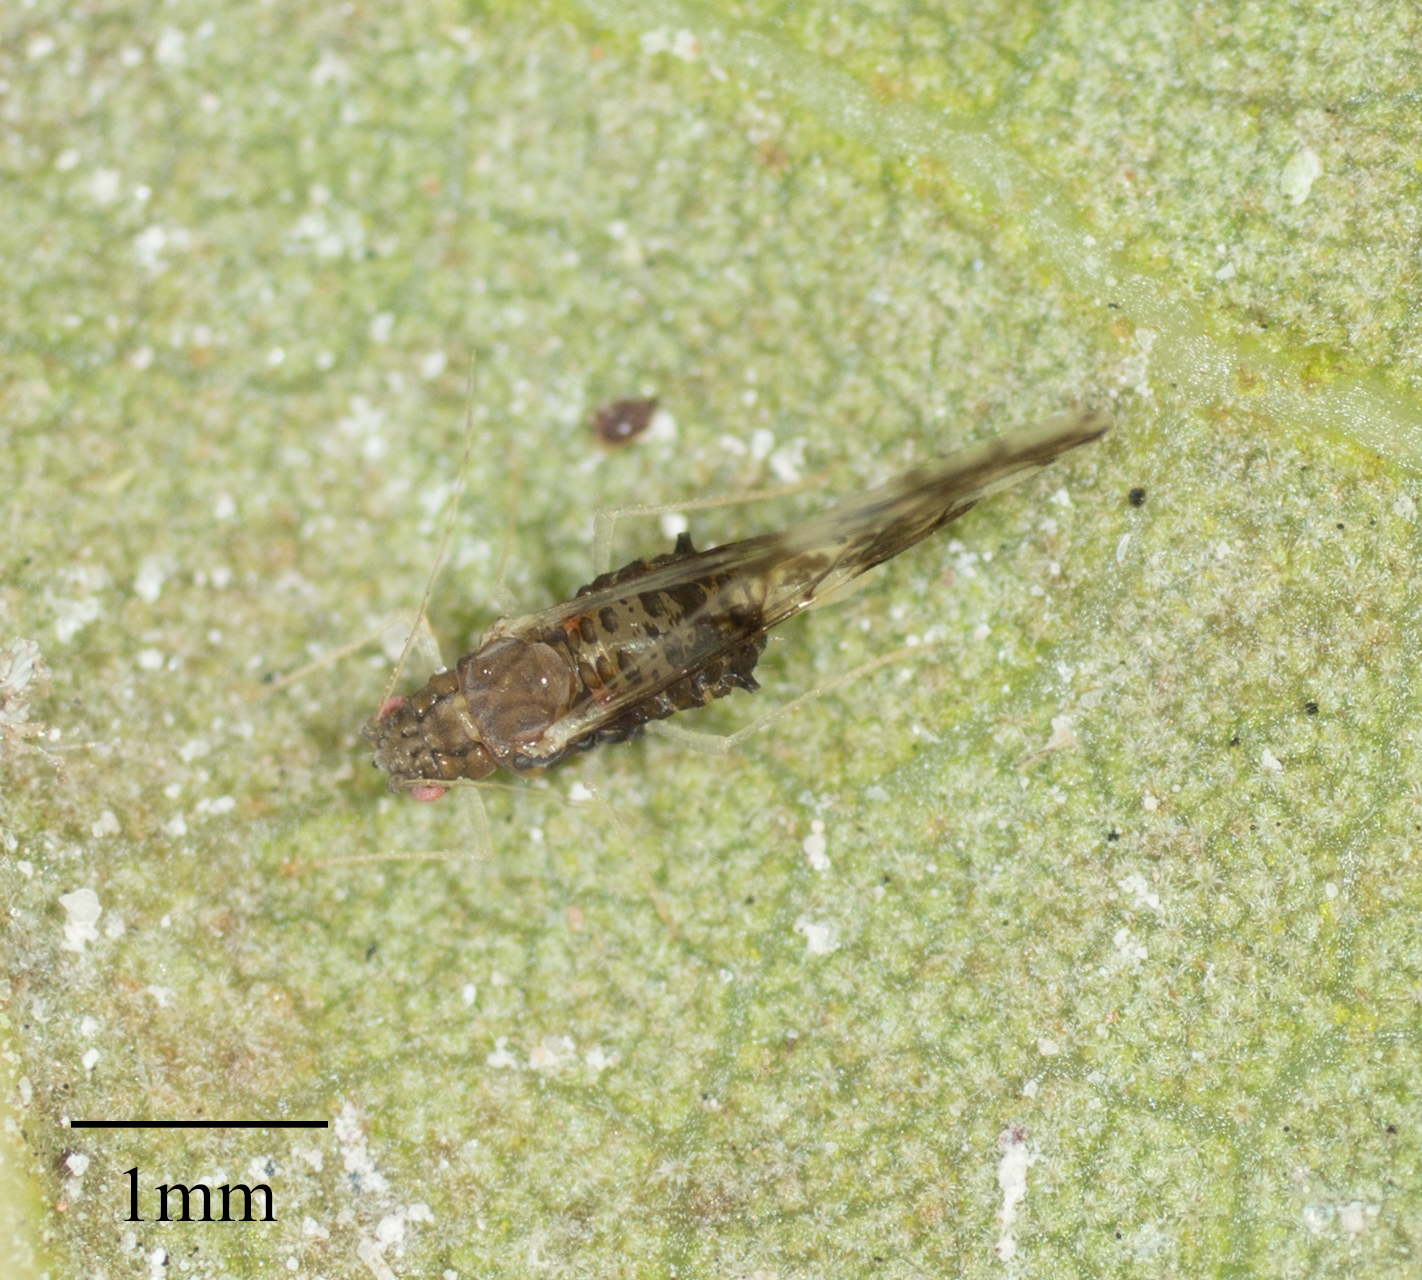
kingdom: Animalia
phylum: Arthropoda
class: Insecta
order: Hemiptera
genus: Neomyzocallis
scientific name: Neomyzocallis
